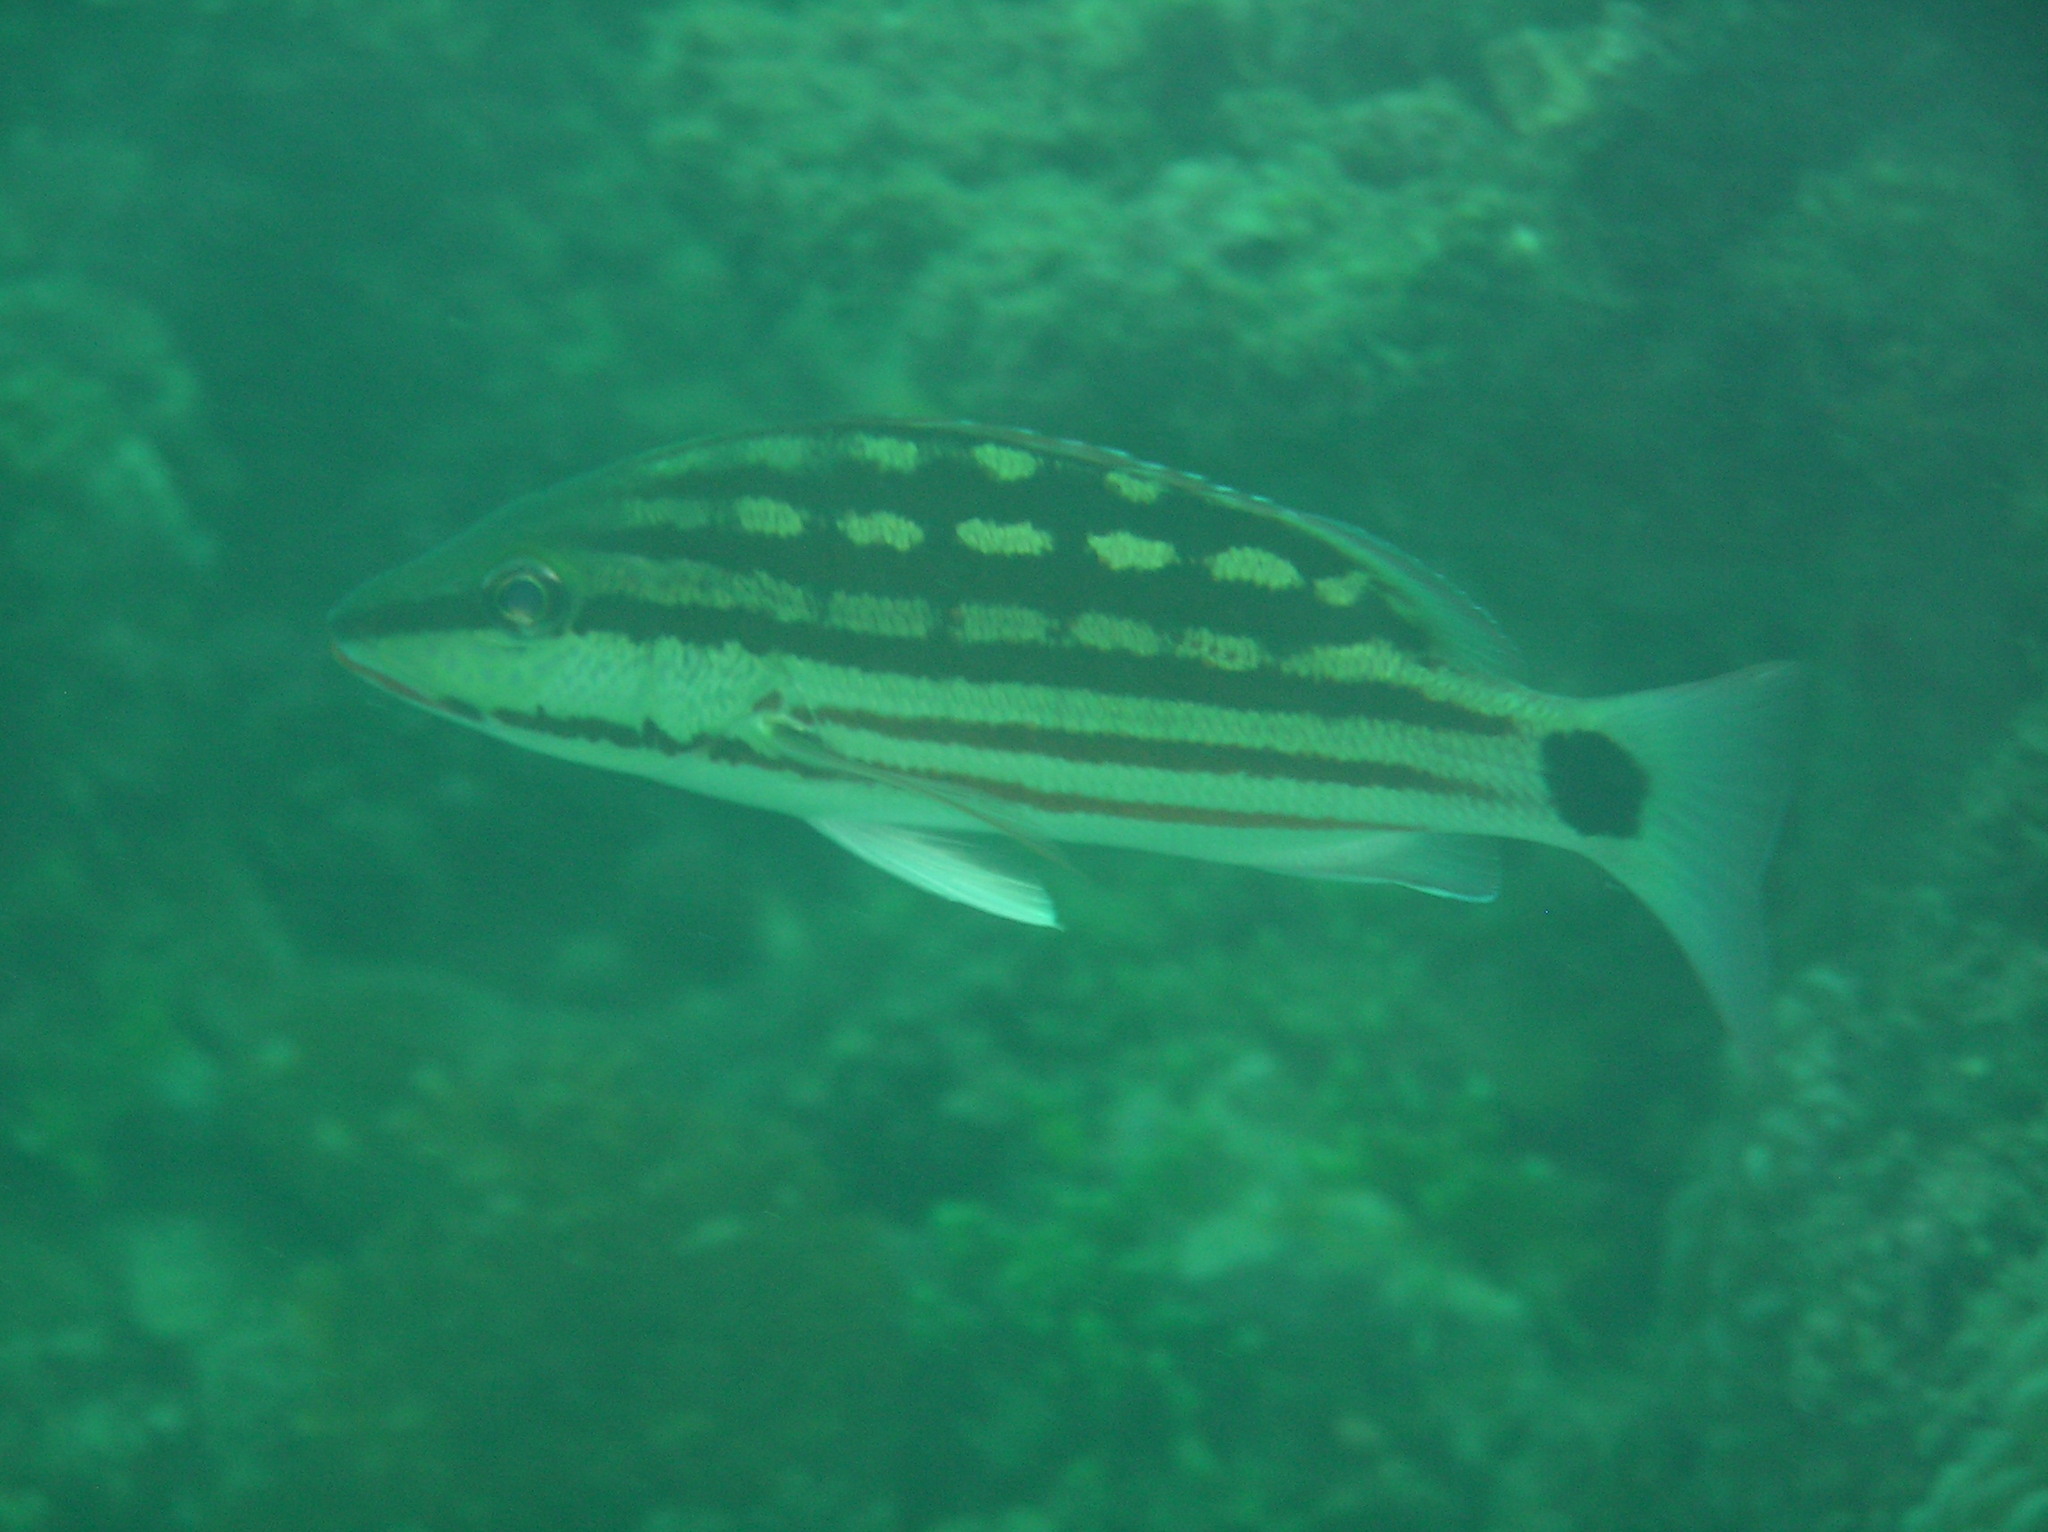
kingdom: Animalia
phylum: Chordata
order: Perciformes
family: Lutjanidae
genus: Lutjanus
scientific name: Lutjanus decussatus
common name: Checkered snapper
